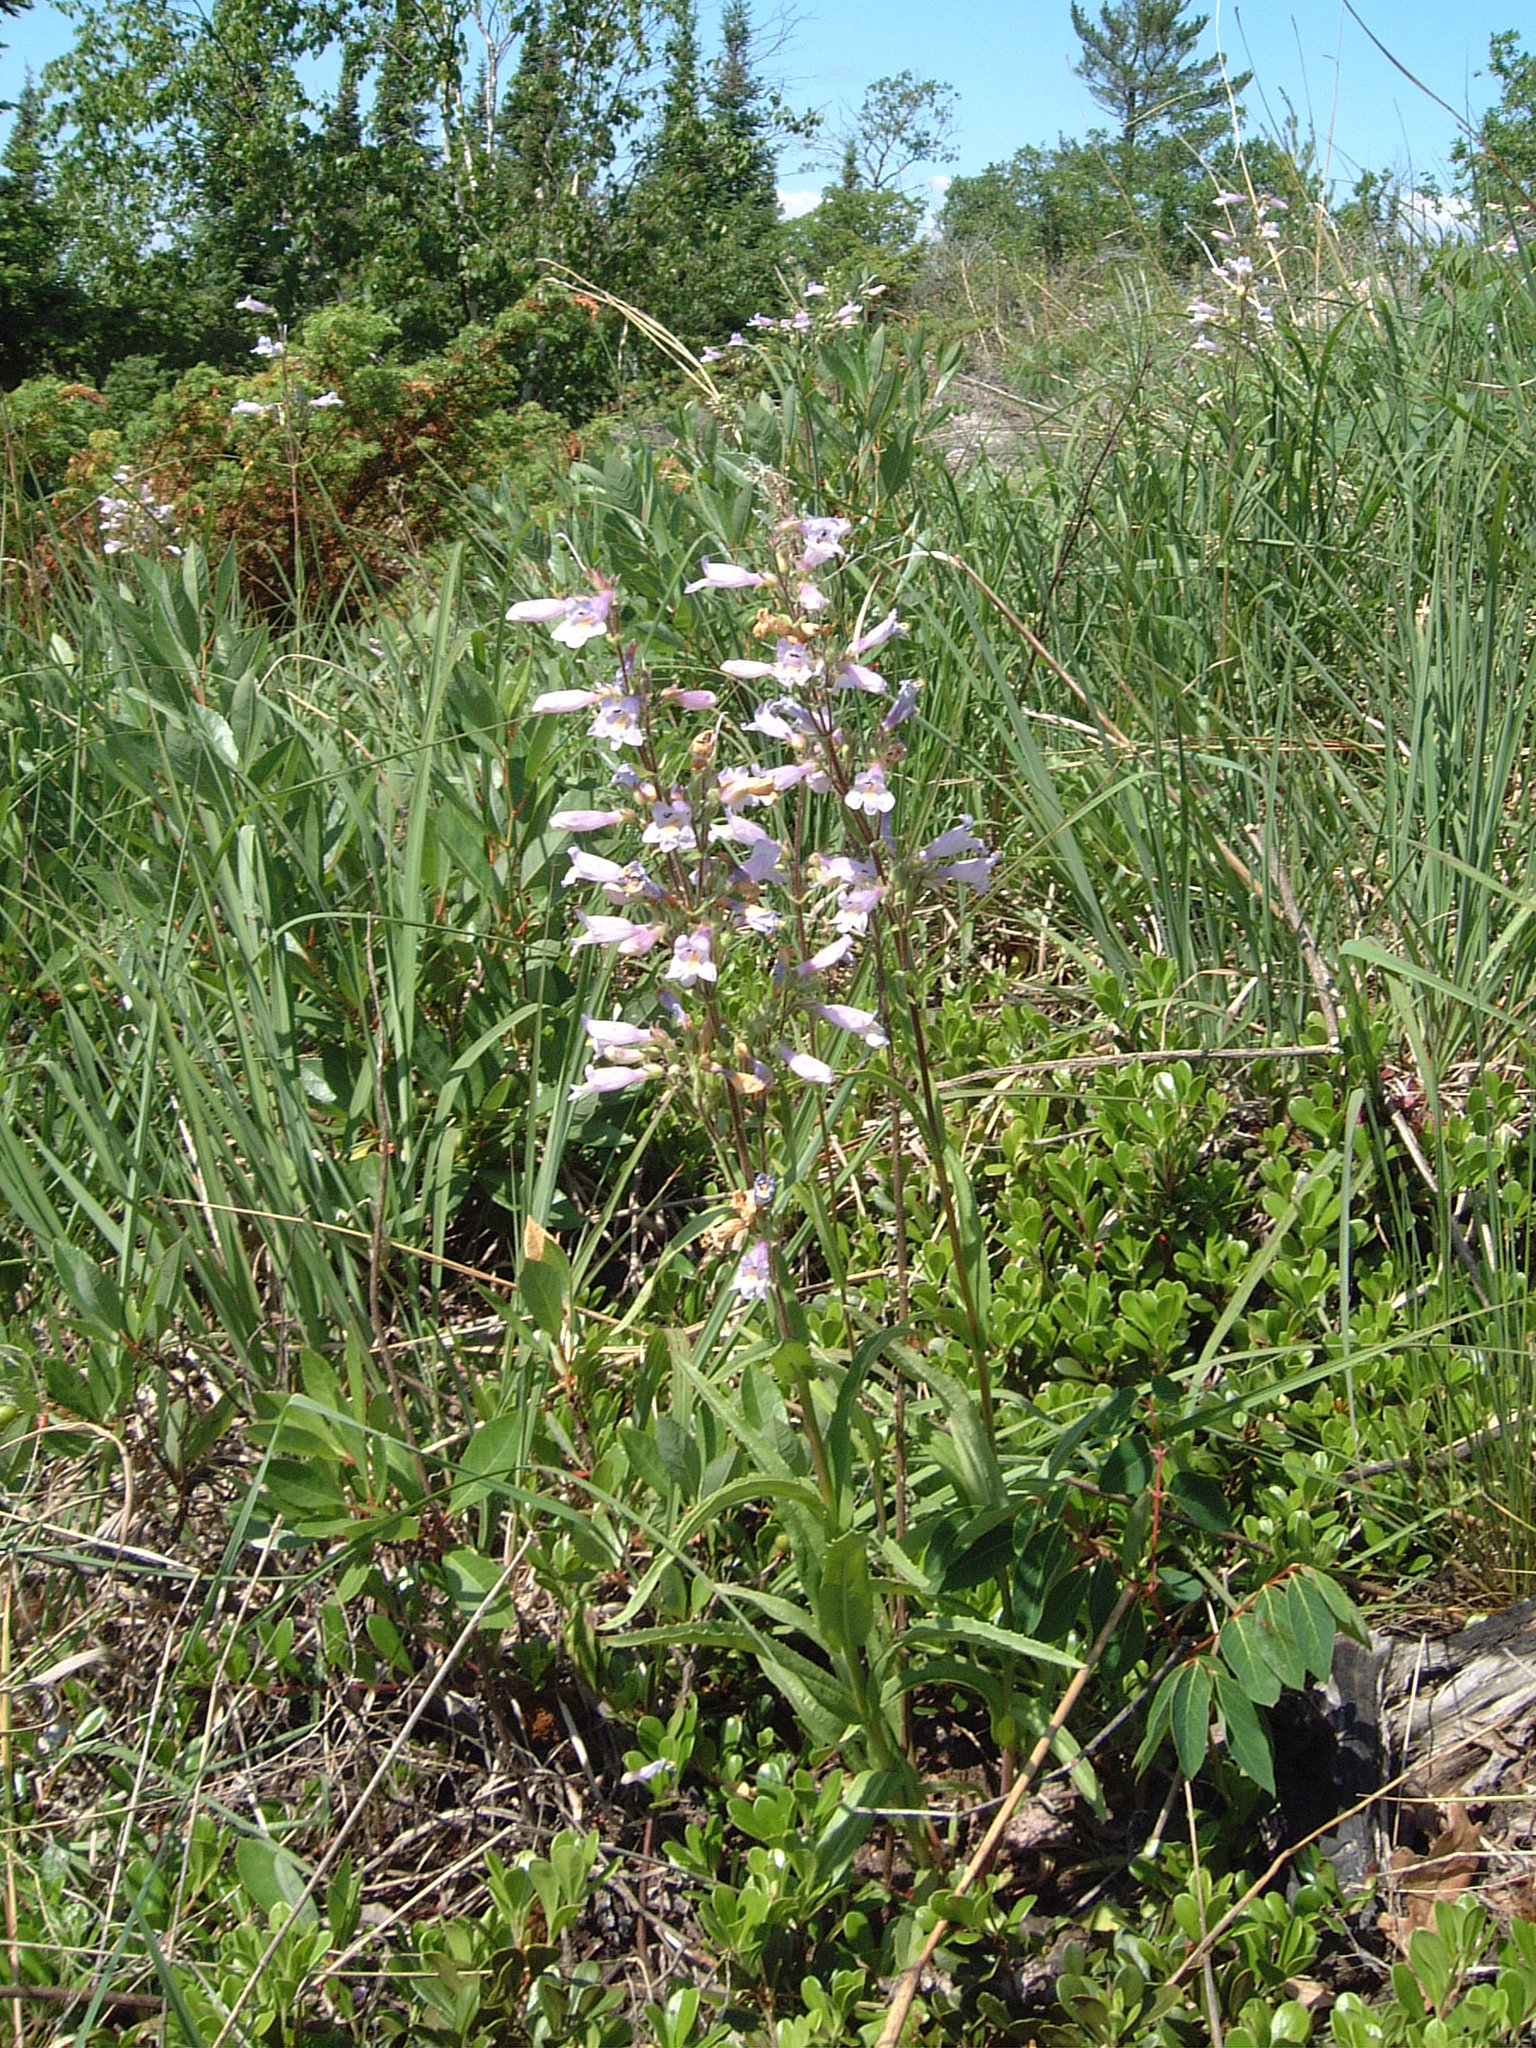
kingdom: Plantae
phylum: Tracheophyta
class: Magnoliopsida
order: Lamiales
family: Plantaginaceae
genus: Penstemon
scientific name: Penstemon gracilis
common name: Slender beardtongue
